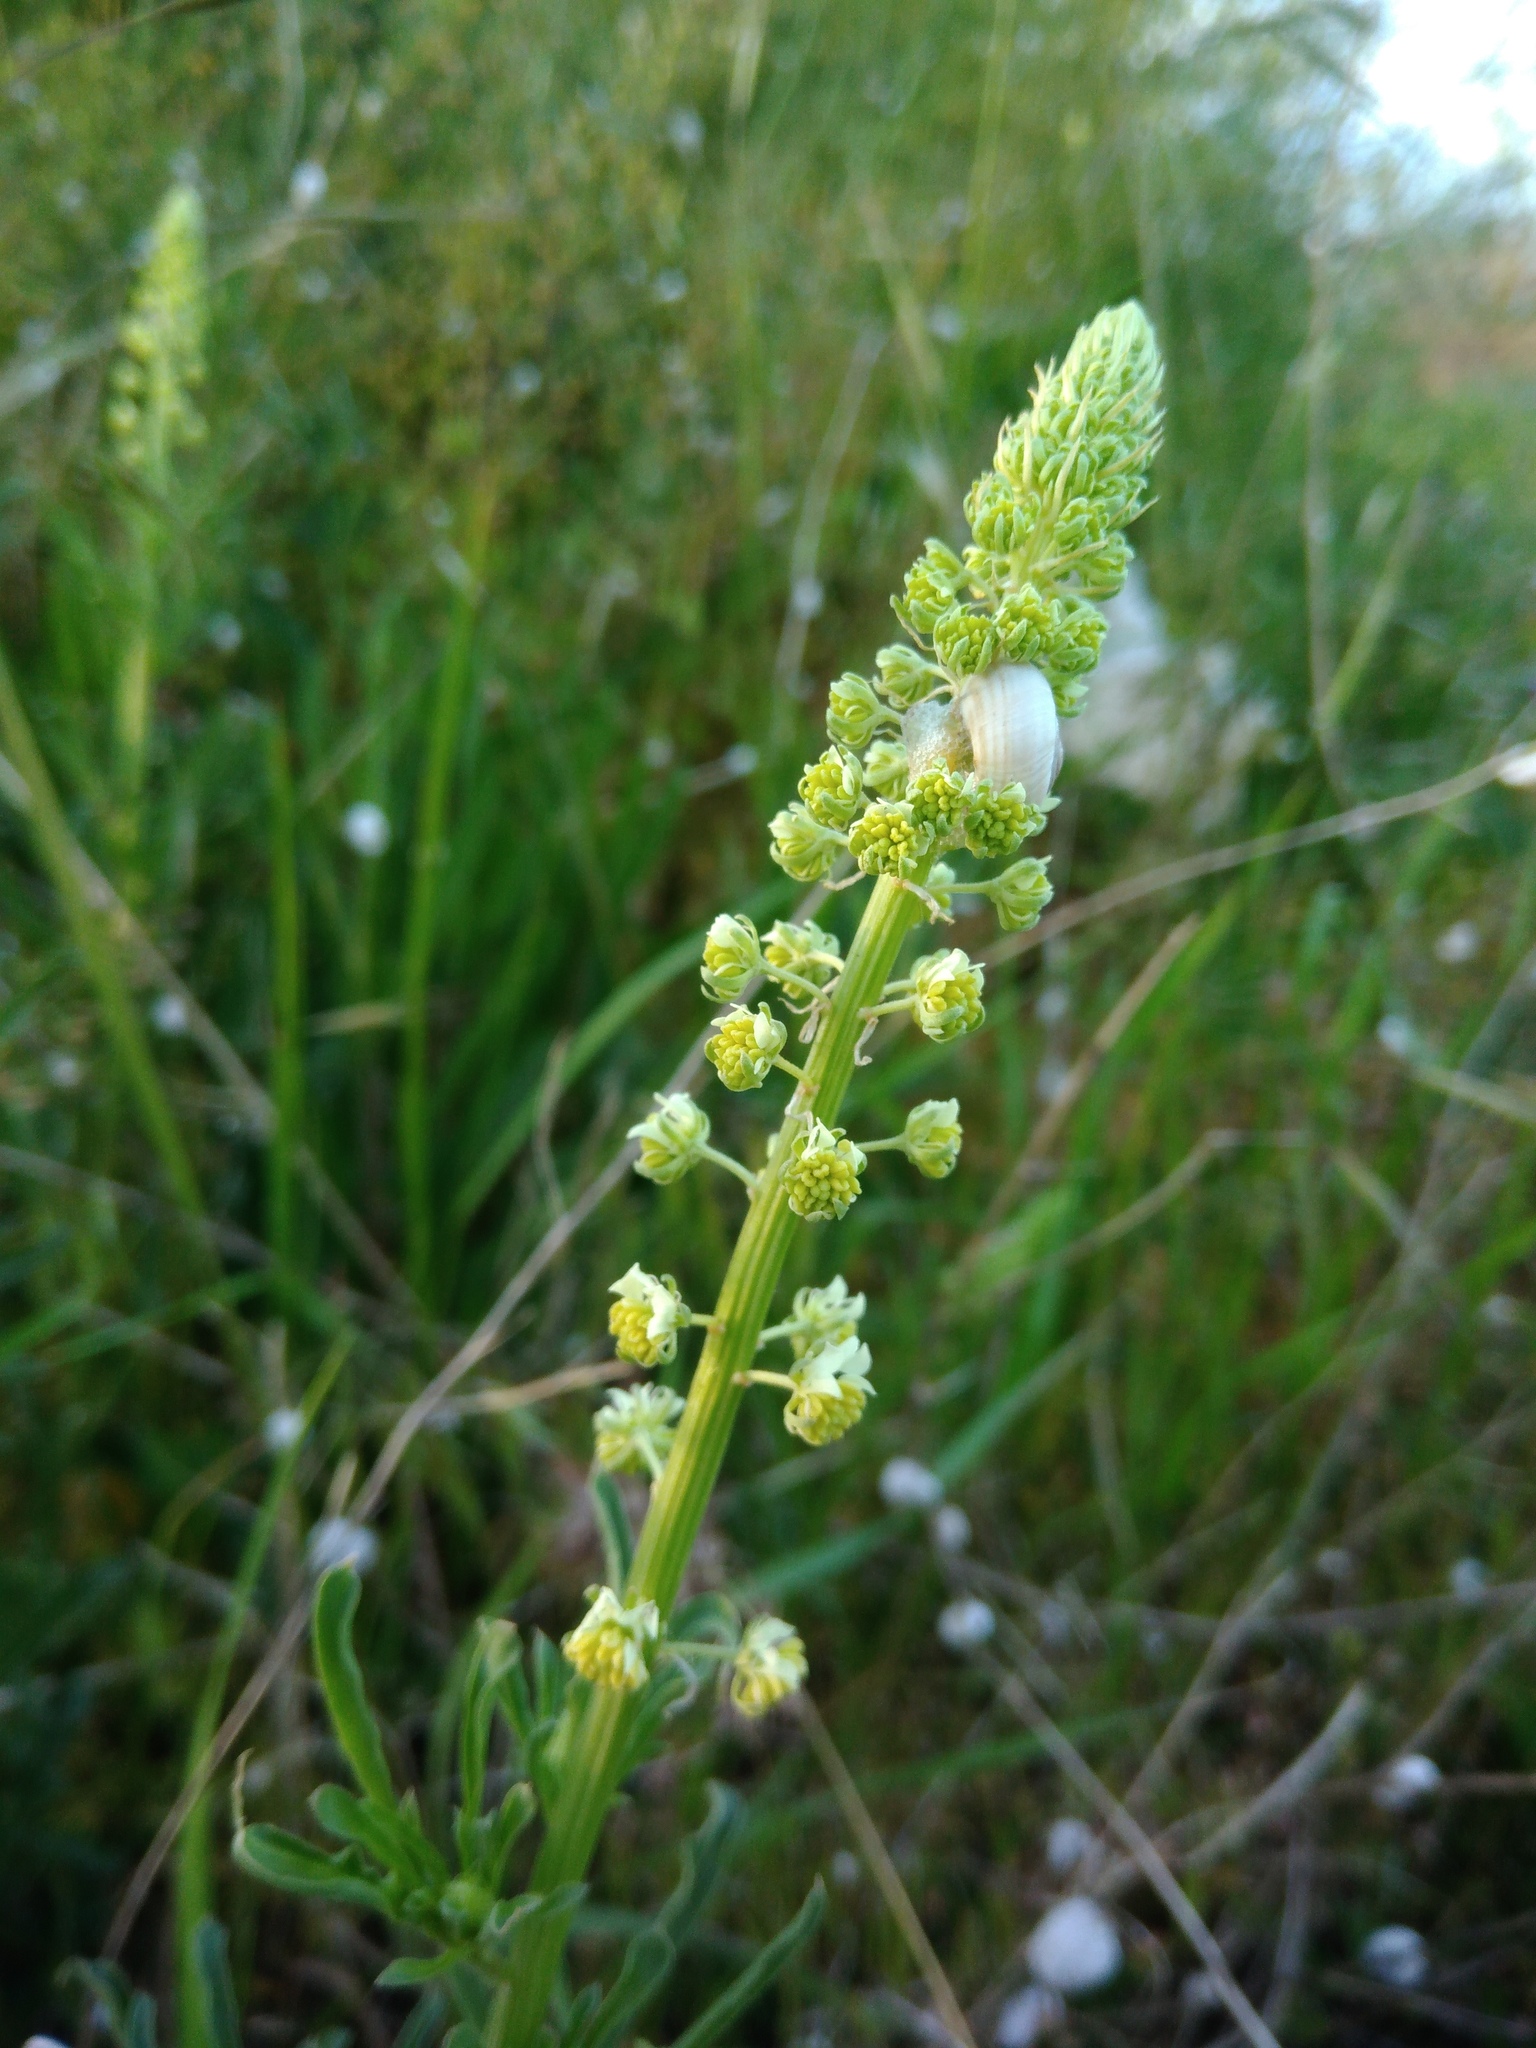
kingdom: Plantae
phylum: Tracheophyta
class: Magnoliopsida
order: Brassicales
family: Resedaceae
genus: Reseda
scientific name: Reseda lutea
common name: Wild mignonette
